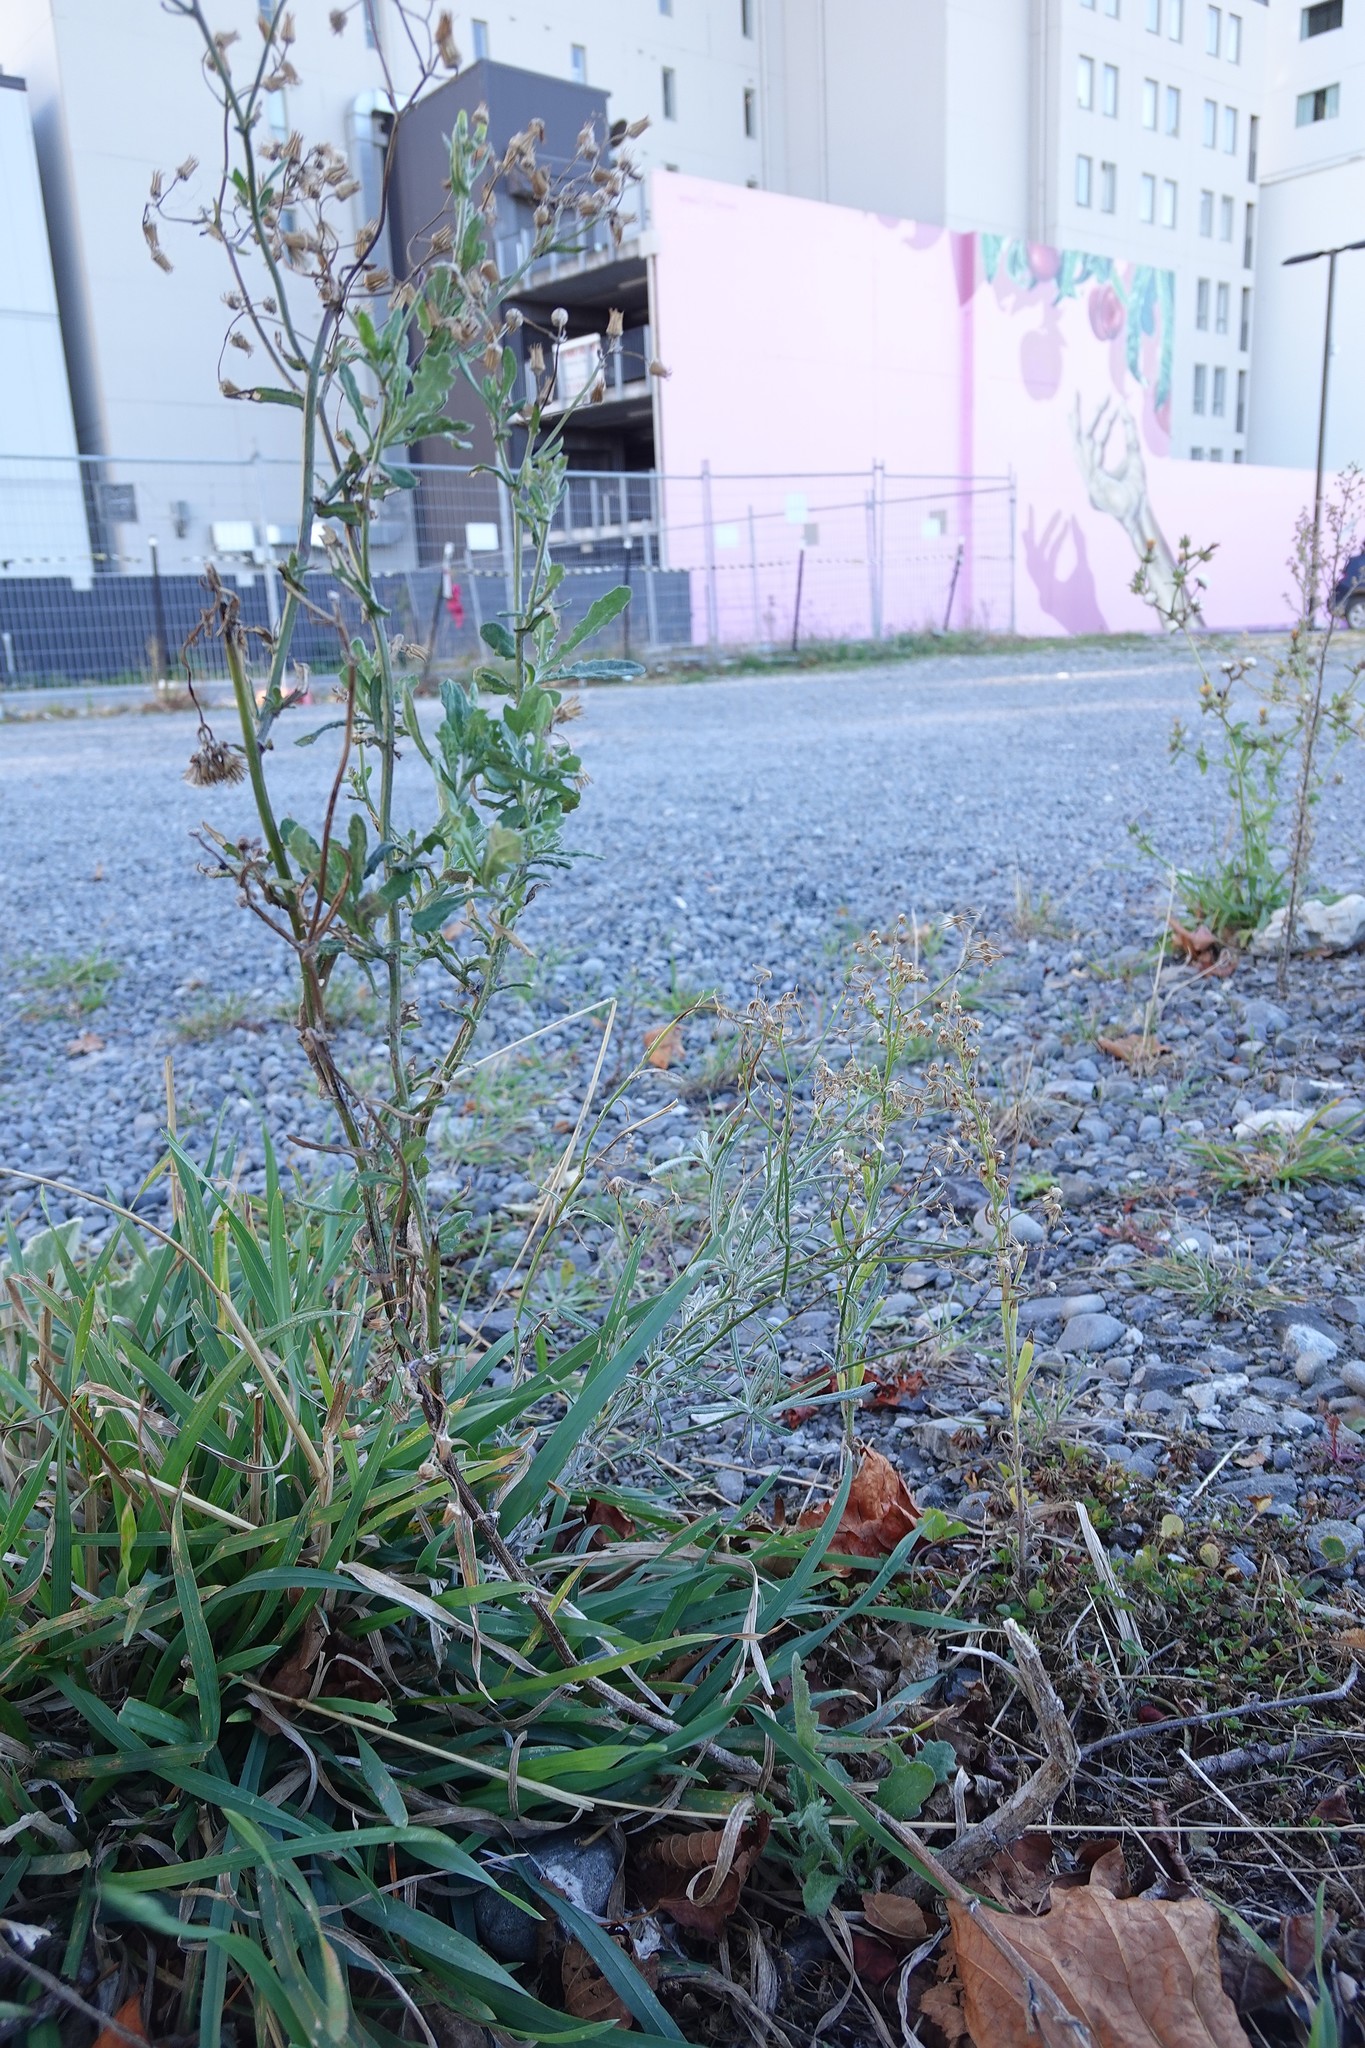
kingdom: Plantae
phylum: Tracheophyta
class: Magnoliopsida
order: Asterales
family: Asteraceae
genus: Senecio
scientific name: Senecio glomeratus
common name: Cutleaf burnweed
